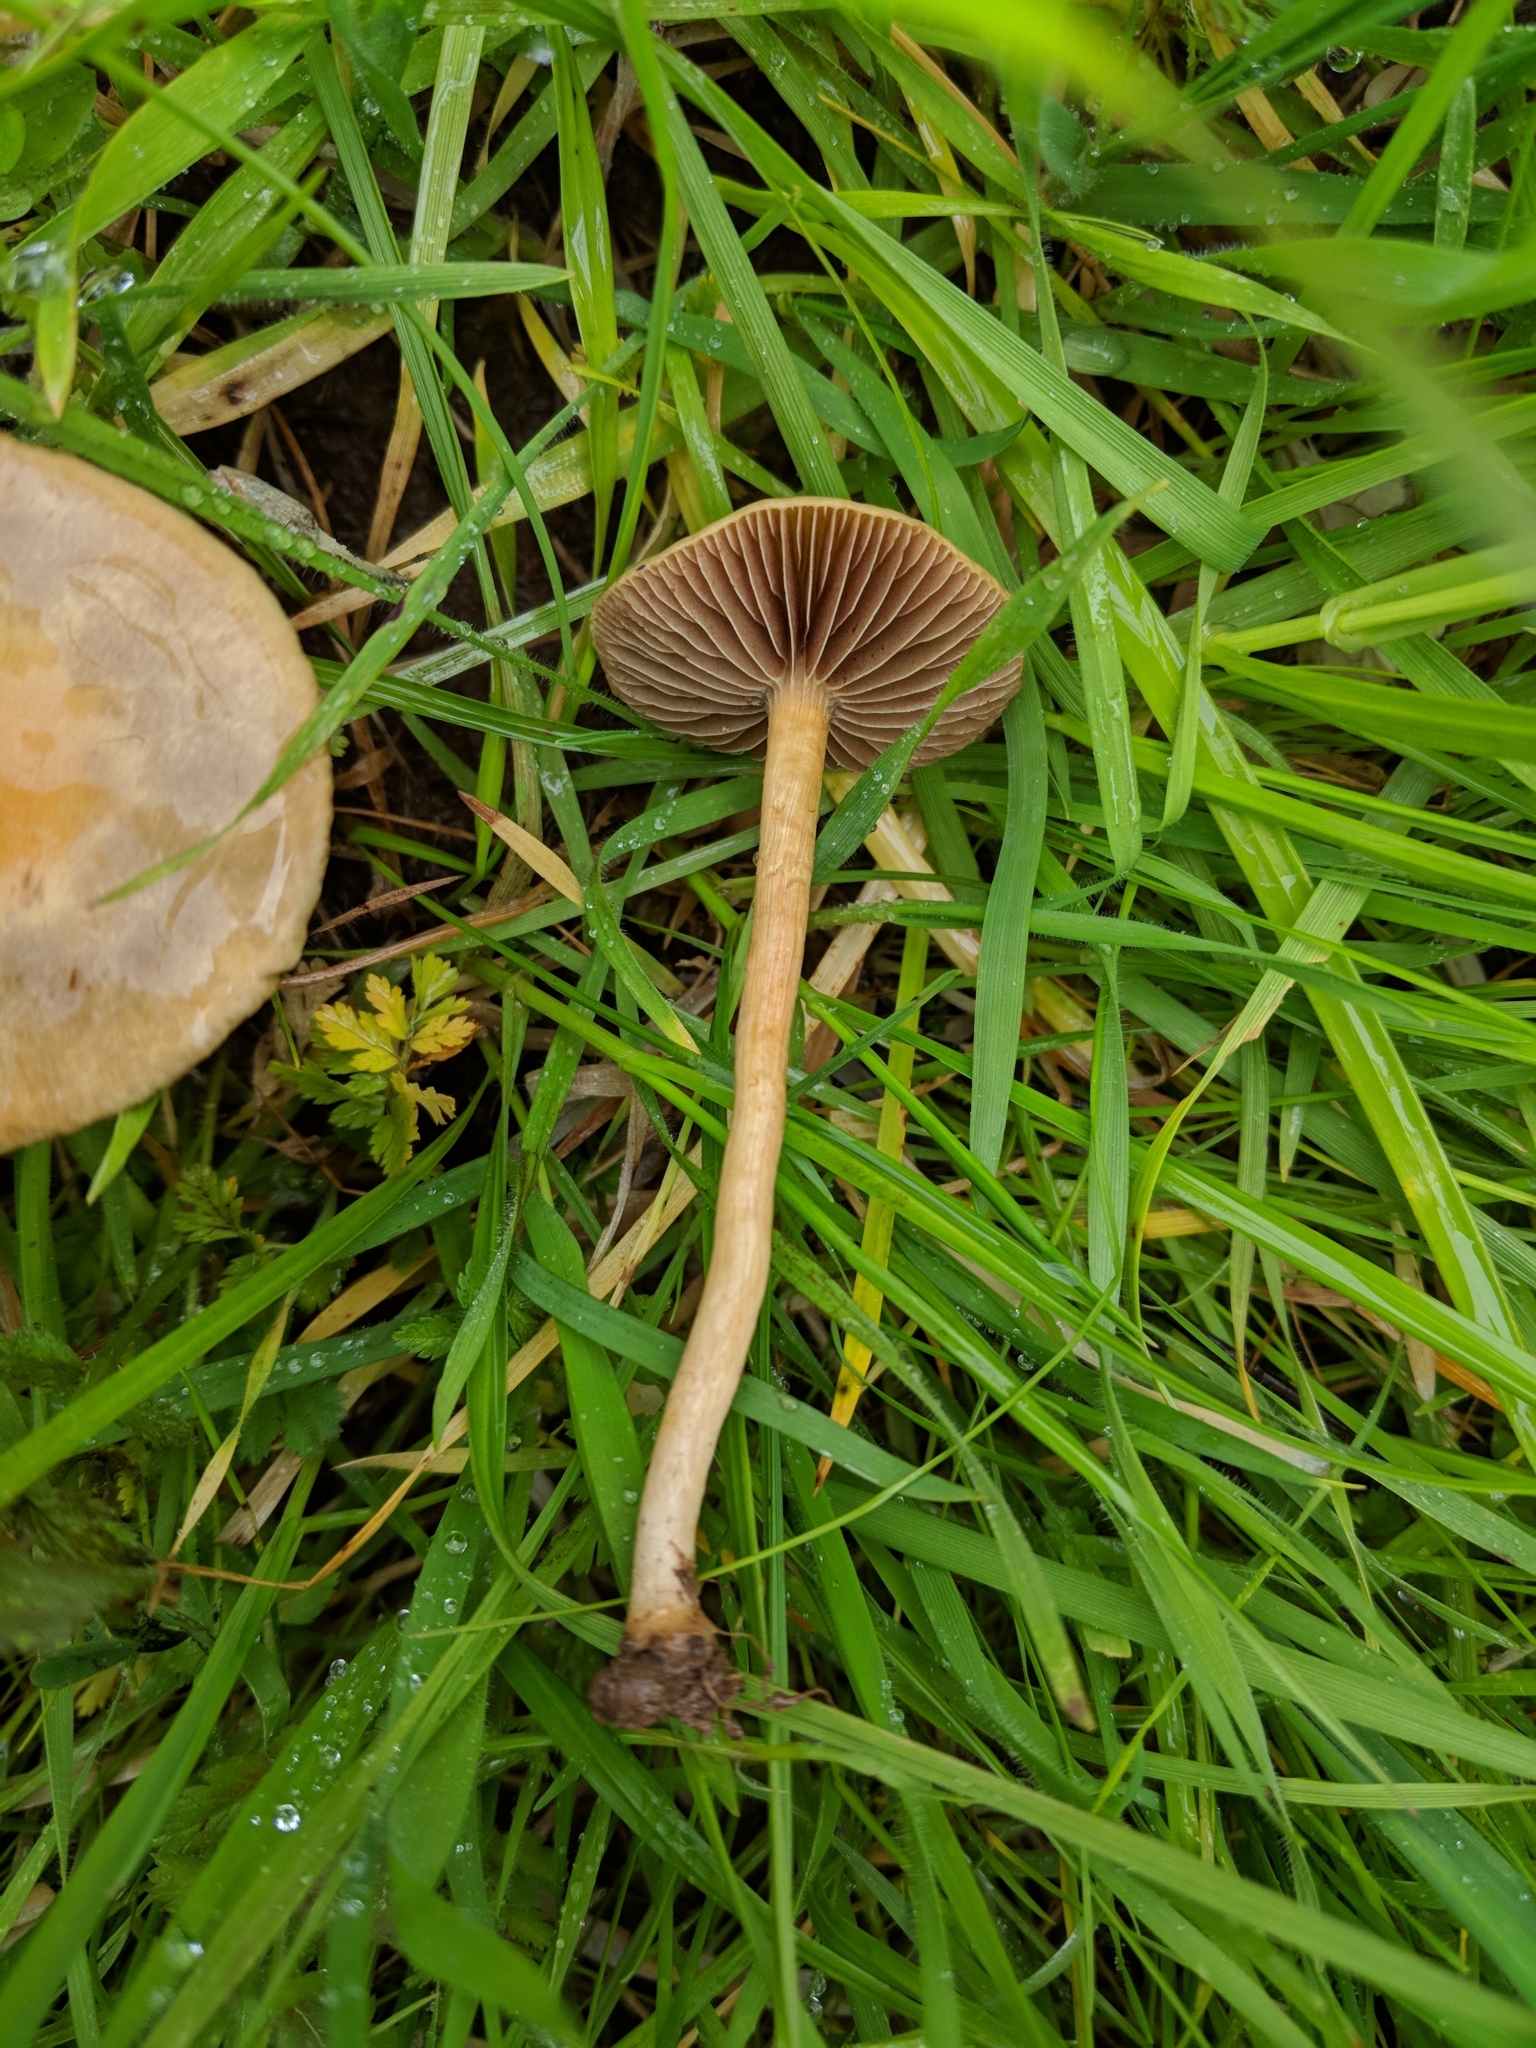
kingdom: Fungi
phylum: Basidiomycota
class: Agaricomycetes
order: Agaricales
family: Strophariaceae
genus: Agrocybe
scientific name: Agrocybe pediades
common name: Common fieldcap
